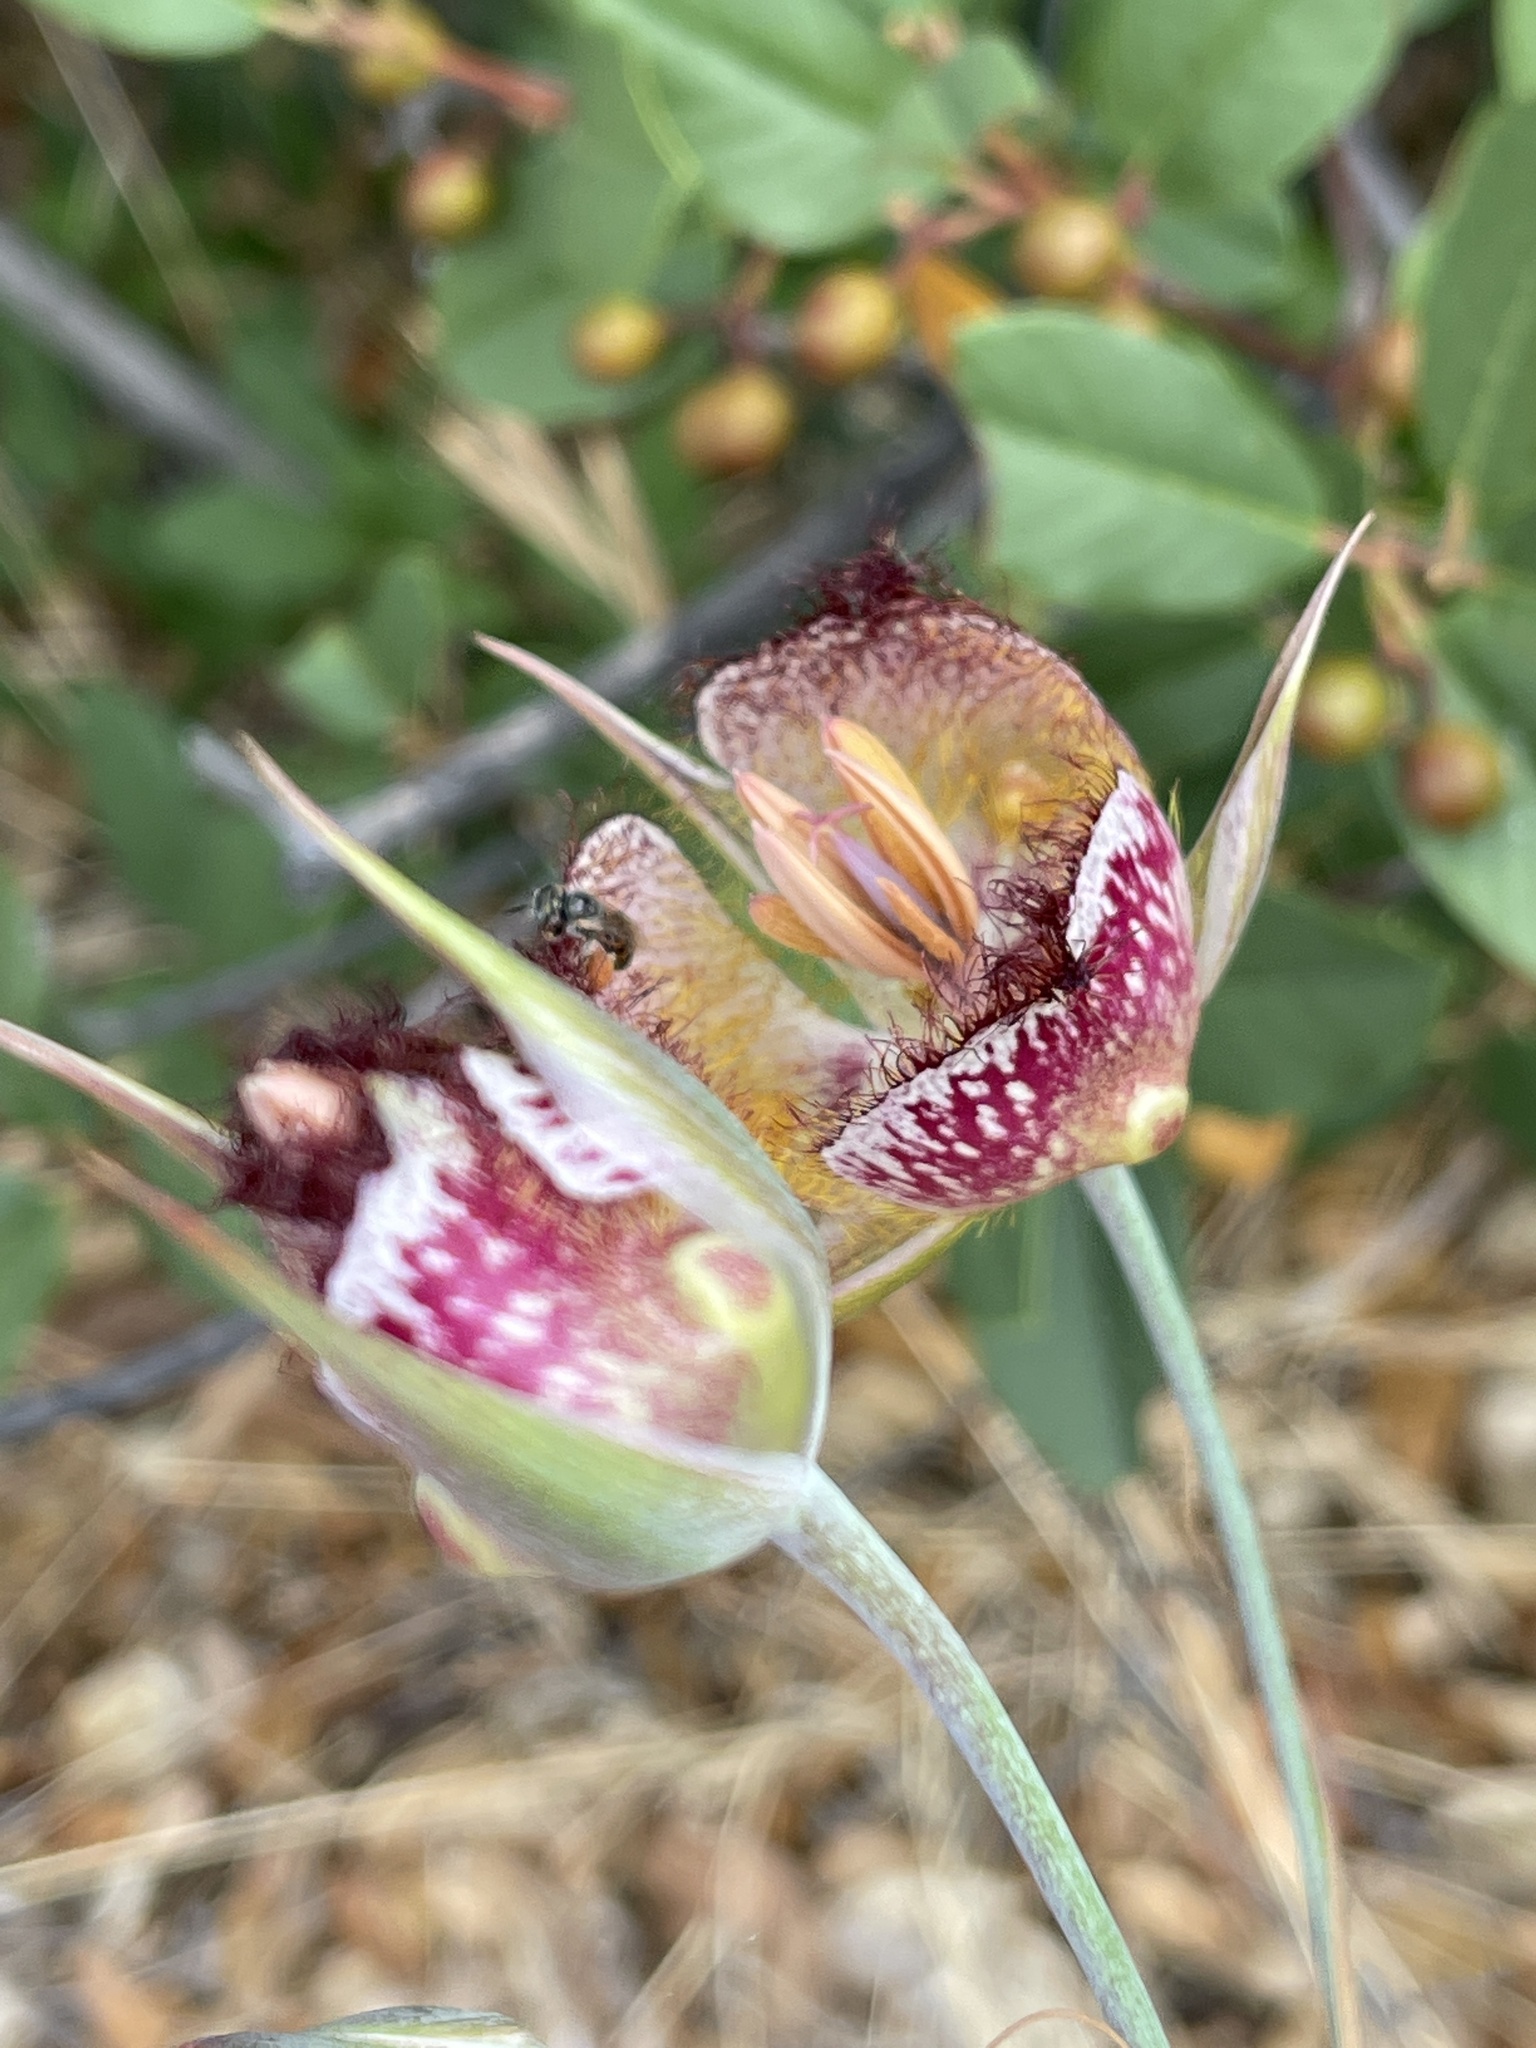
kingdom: Plantae
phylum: Tracheophyta
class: Liliopsida
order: Liliales
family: Liliaceae
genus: Calochortus
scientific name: Calochortus fimbriatus
